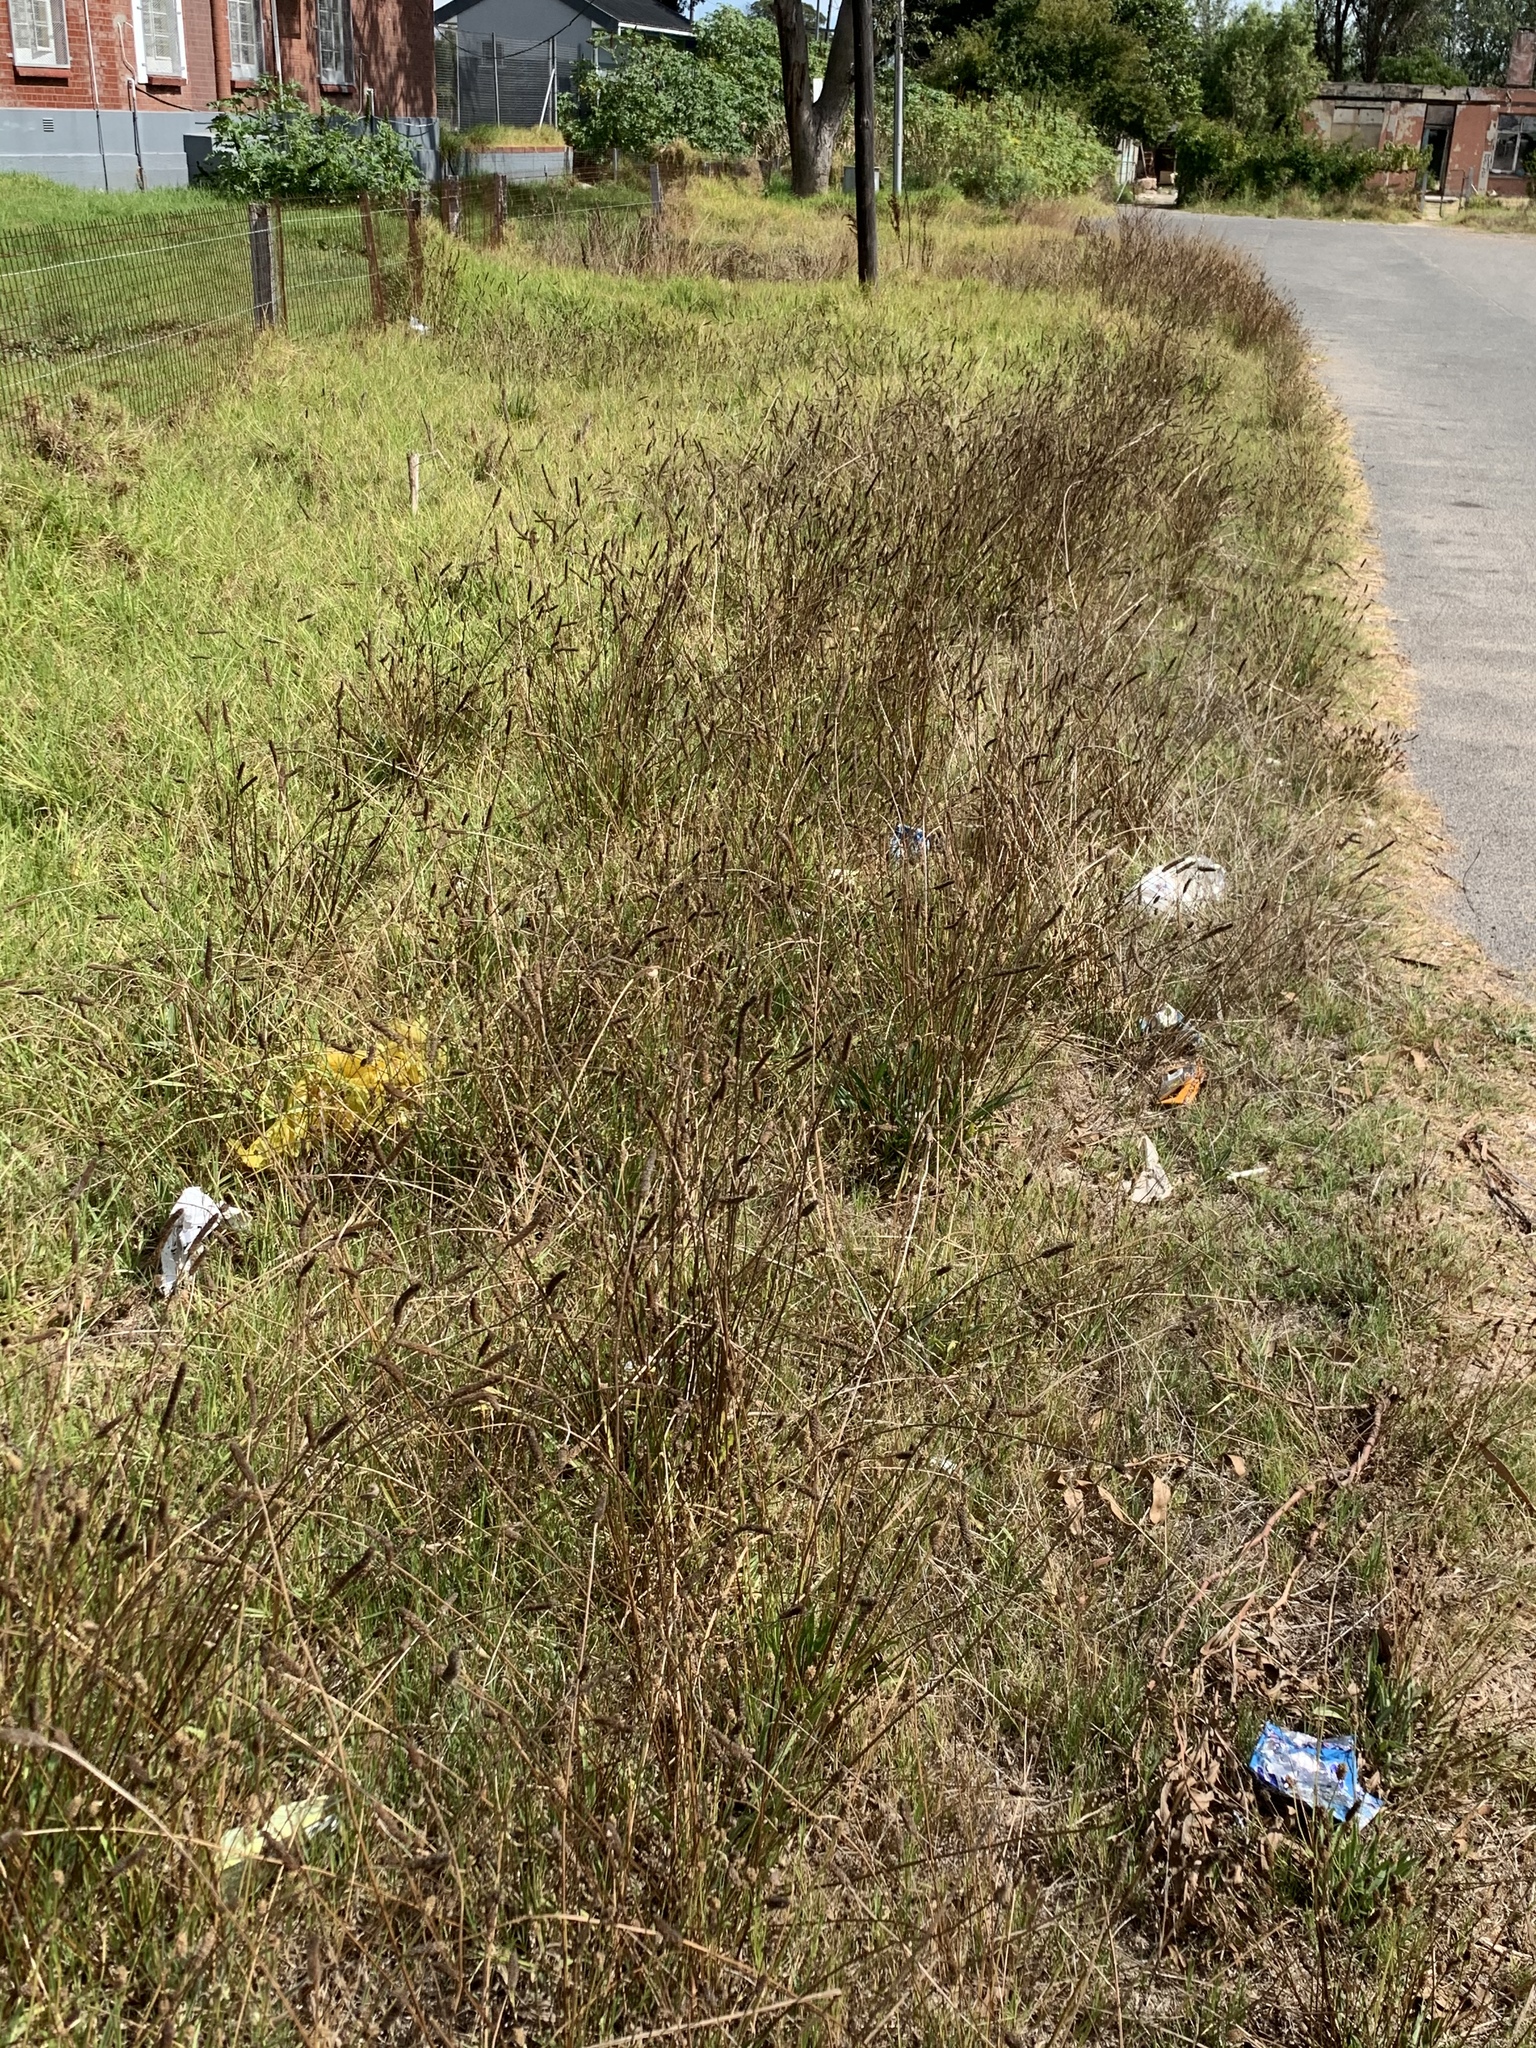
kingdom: Plantae
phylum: Tracheophyta
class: Magnoliopsida
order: Lamiales
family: Plantaginaceae
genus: Plantago
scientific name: Plantago lanceolata
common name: Ribwort plantain
